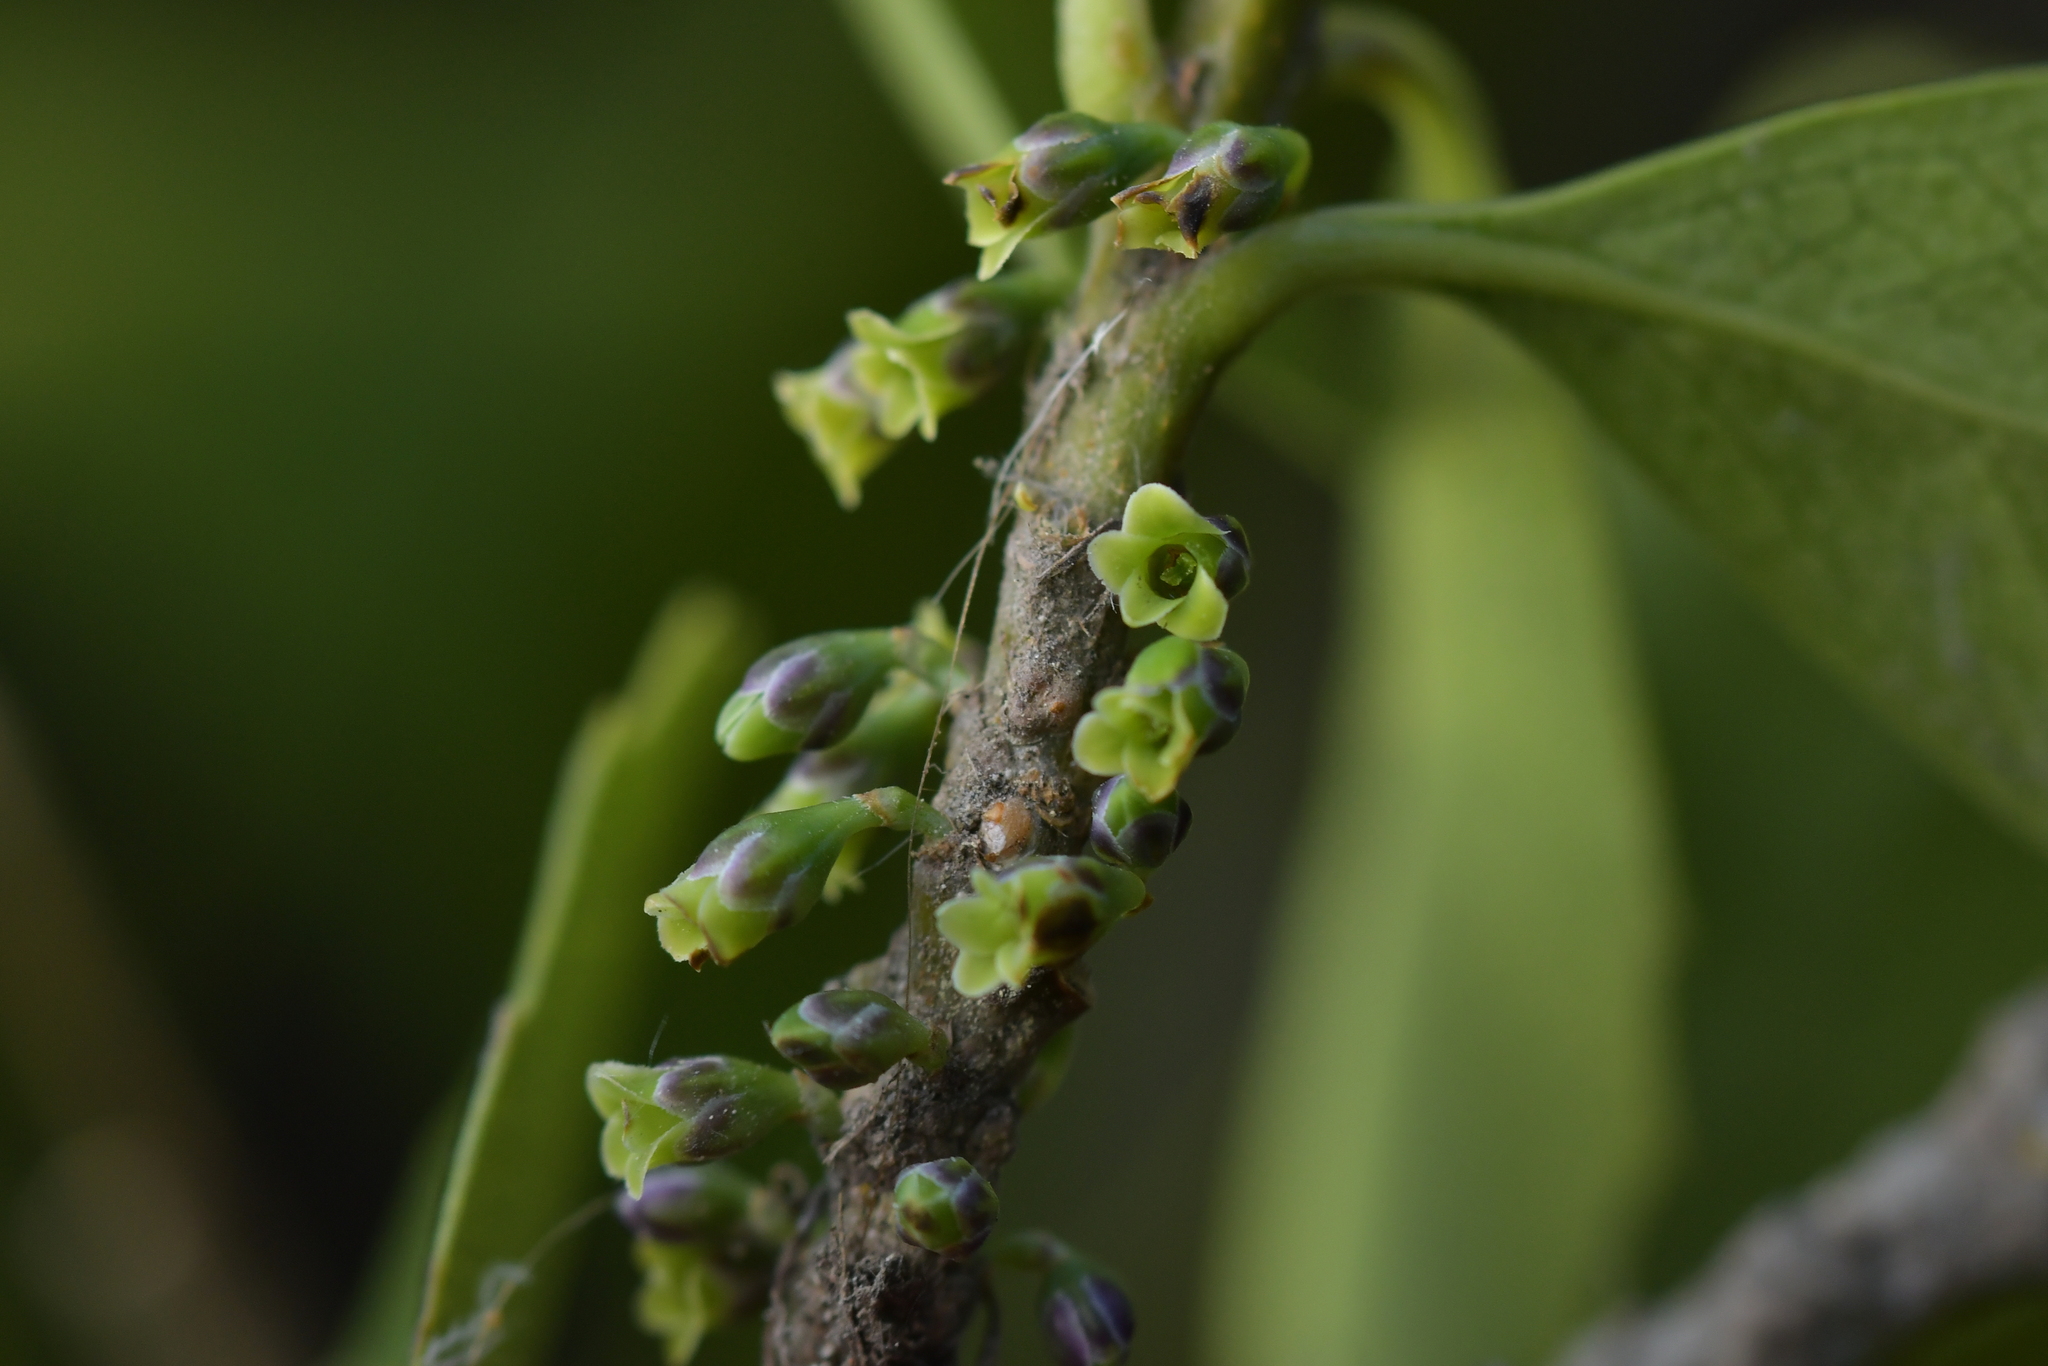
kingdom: Plantae
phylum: Tracheophyta
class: Magnoliopsida
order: Malpighiales
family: Violaceae
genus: Melicytus
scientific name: Melicytus novae-zelandiae
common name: Coastal mahoe
